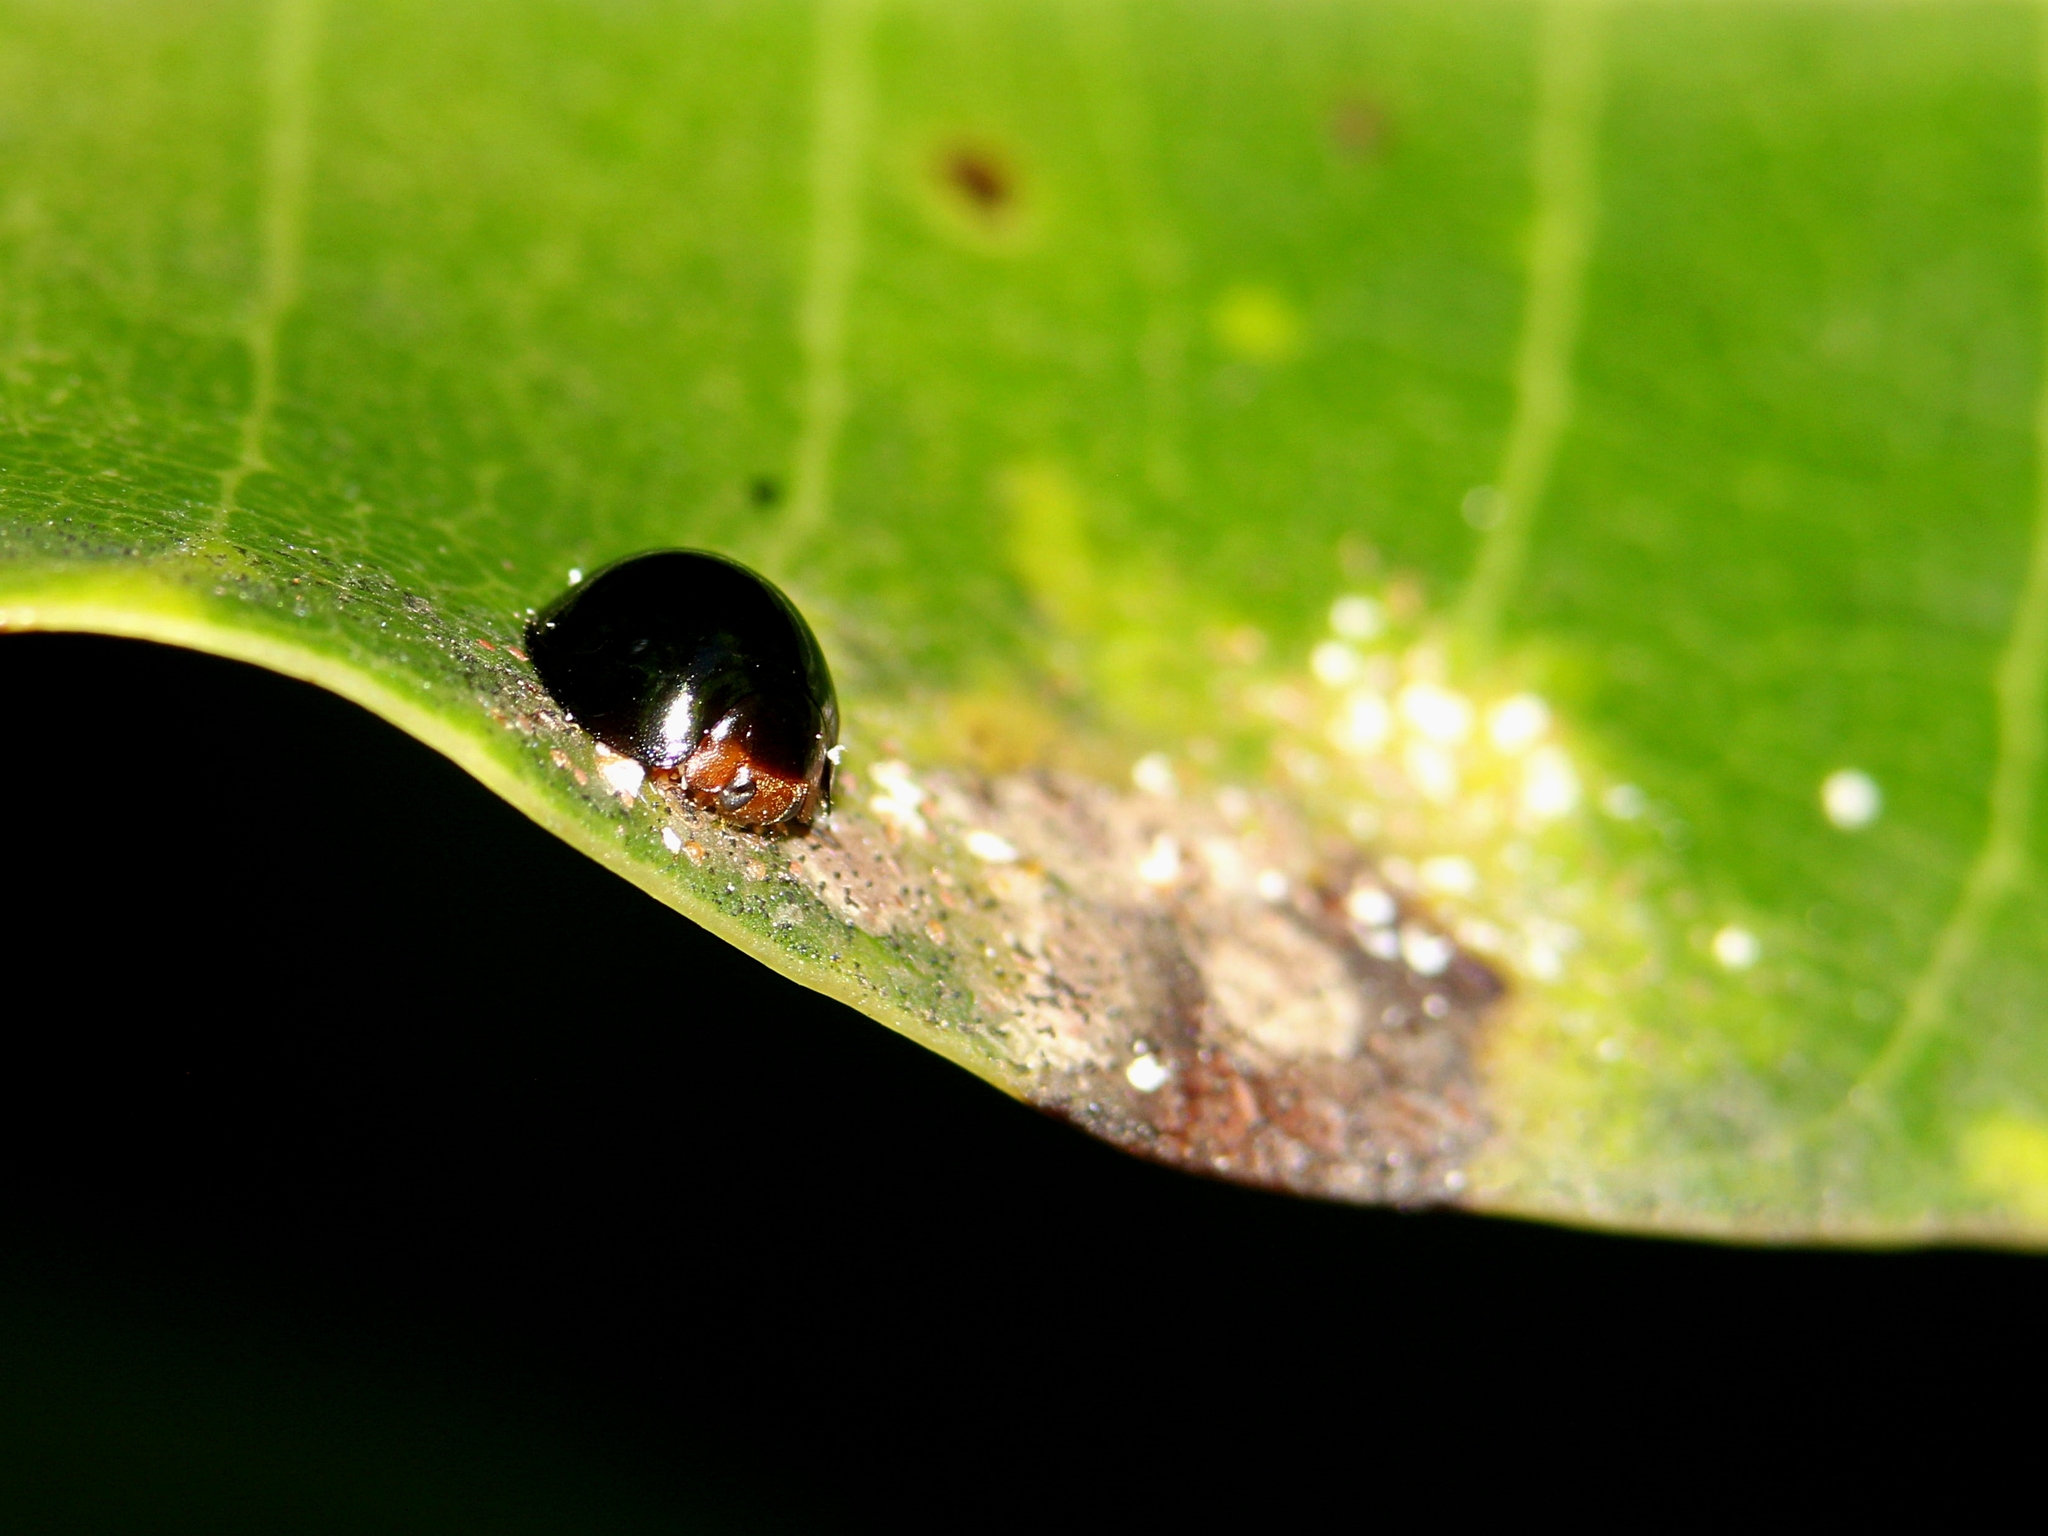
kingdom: Animalia
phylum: Arthropoda
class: Insecta
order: Coleoptera
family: Coccinellidae
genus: Chilocorus
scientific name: Chilocorus nigritus
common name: Ladybird beetle
